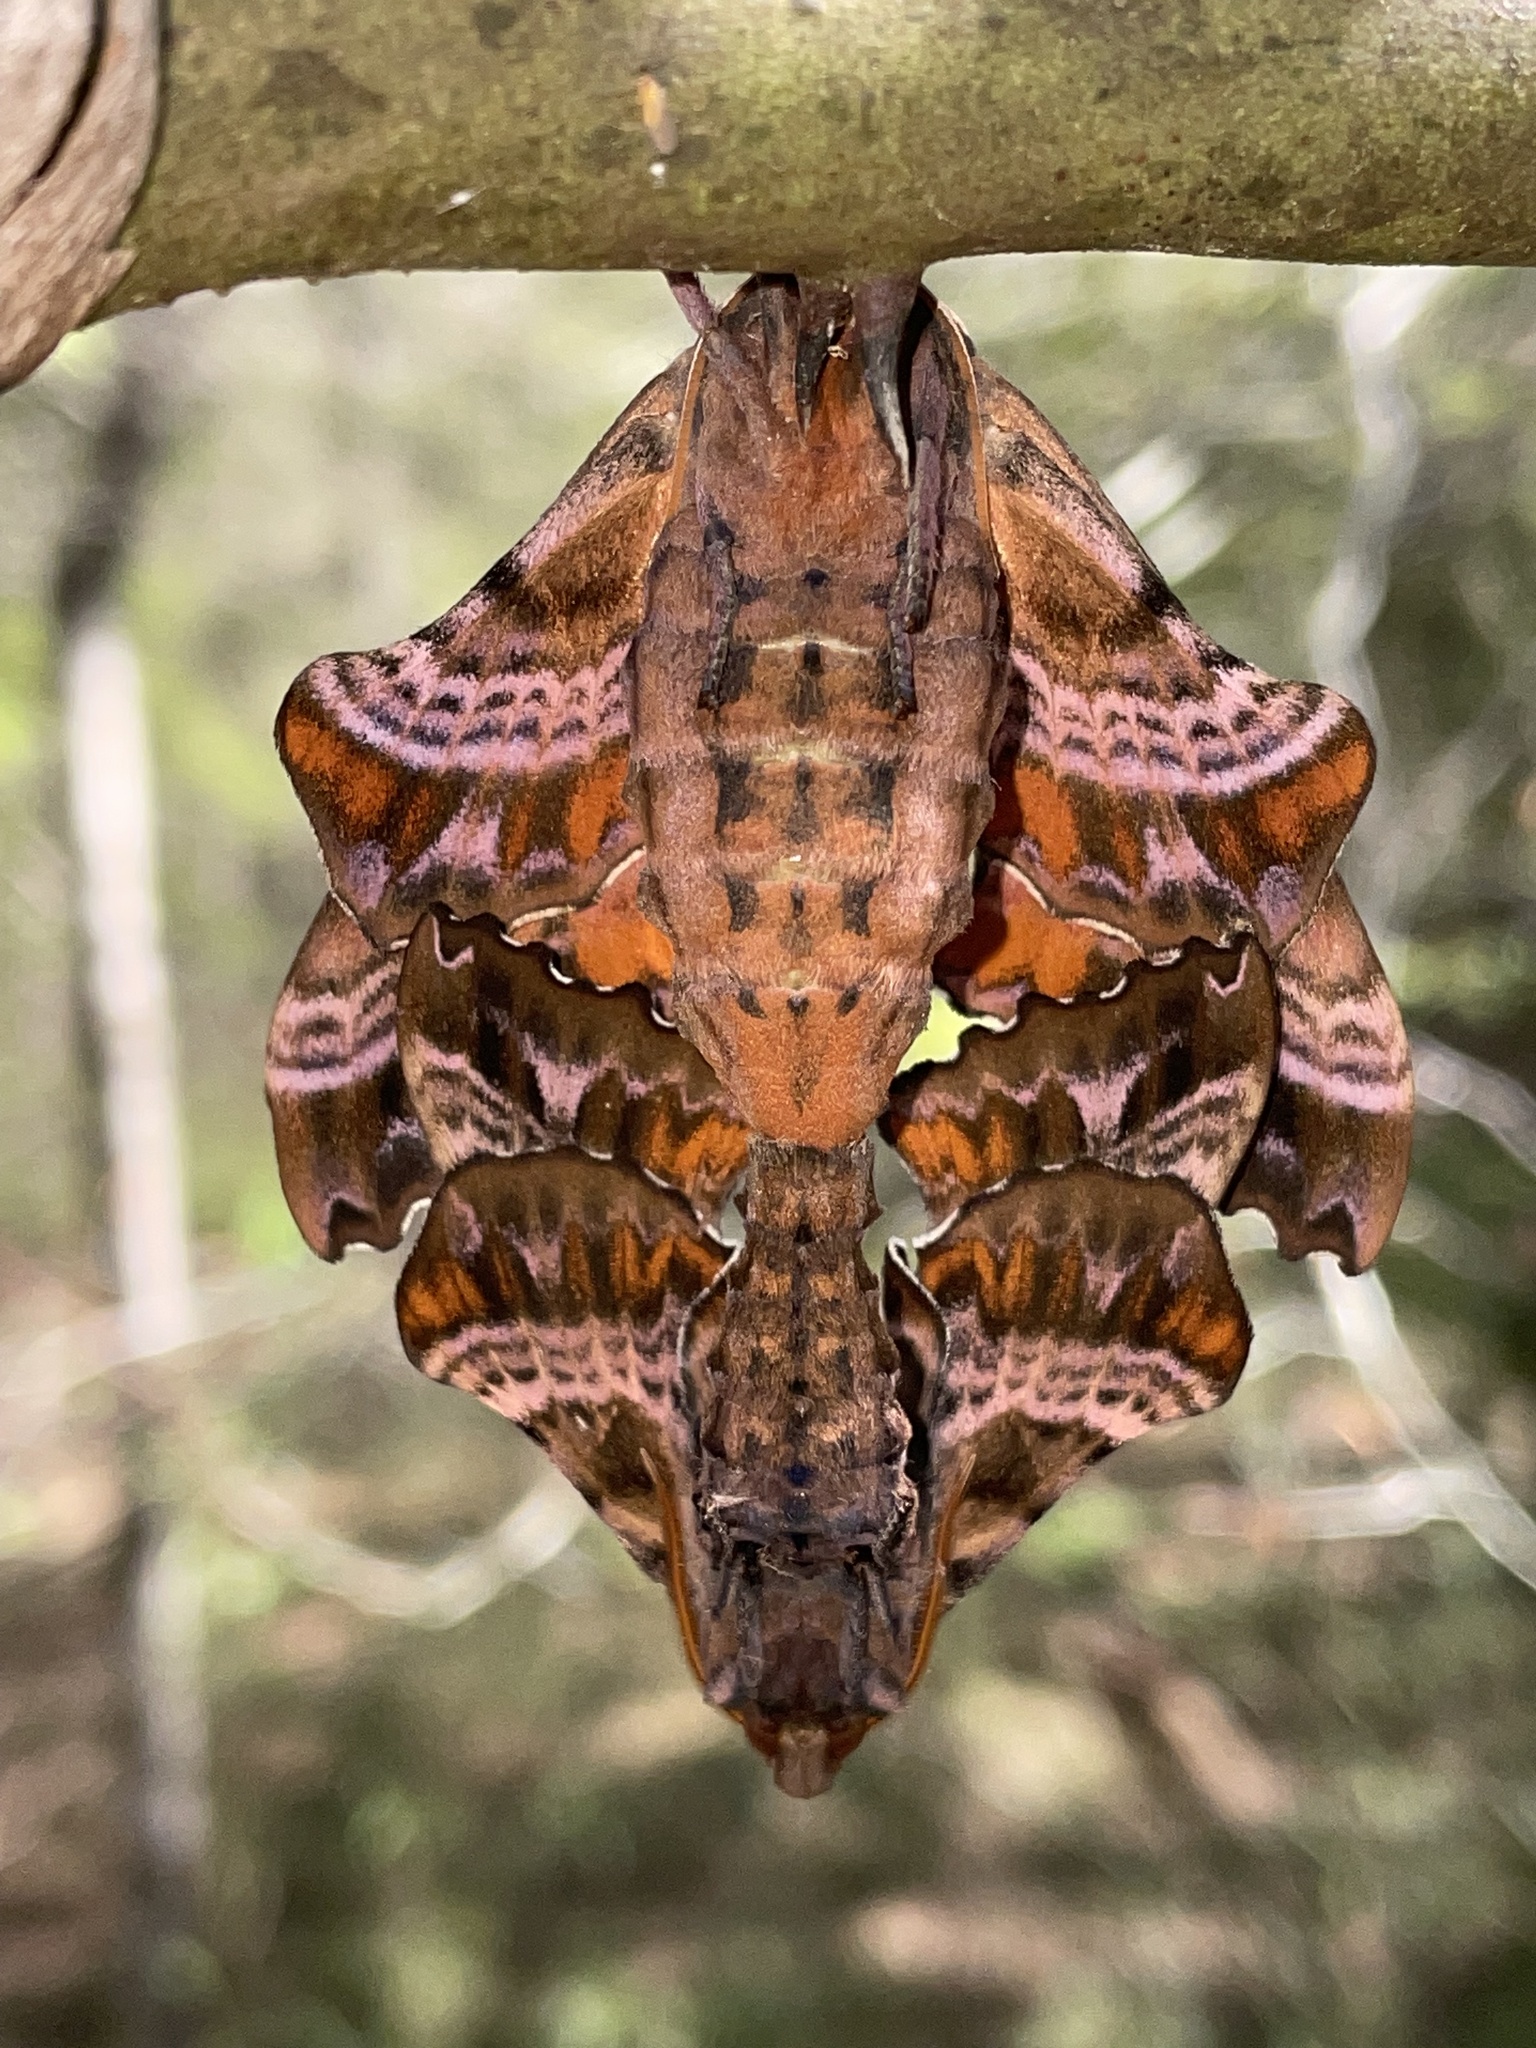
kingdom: Animalia
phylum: Arthropoda
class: Insecta
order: Lepidoptera
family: Sphingidae
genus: Paonias
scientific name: Paonias excaecata
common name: Blind-eyed sphinx
